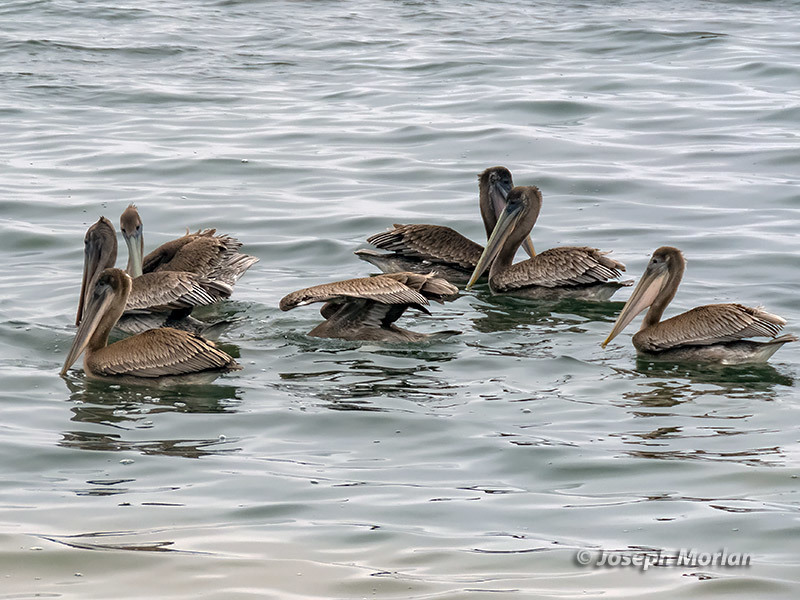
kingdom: Animalia
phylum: Chordata
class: Aves
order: Pelecaniformes
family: Pelecanidae
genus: Pelecanus
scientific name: Pelecanus occidentalis
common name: Brown pelican
